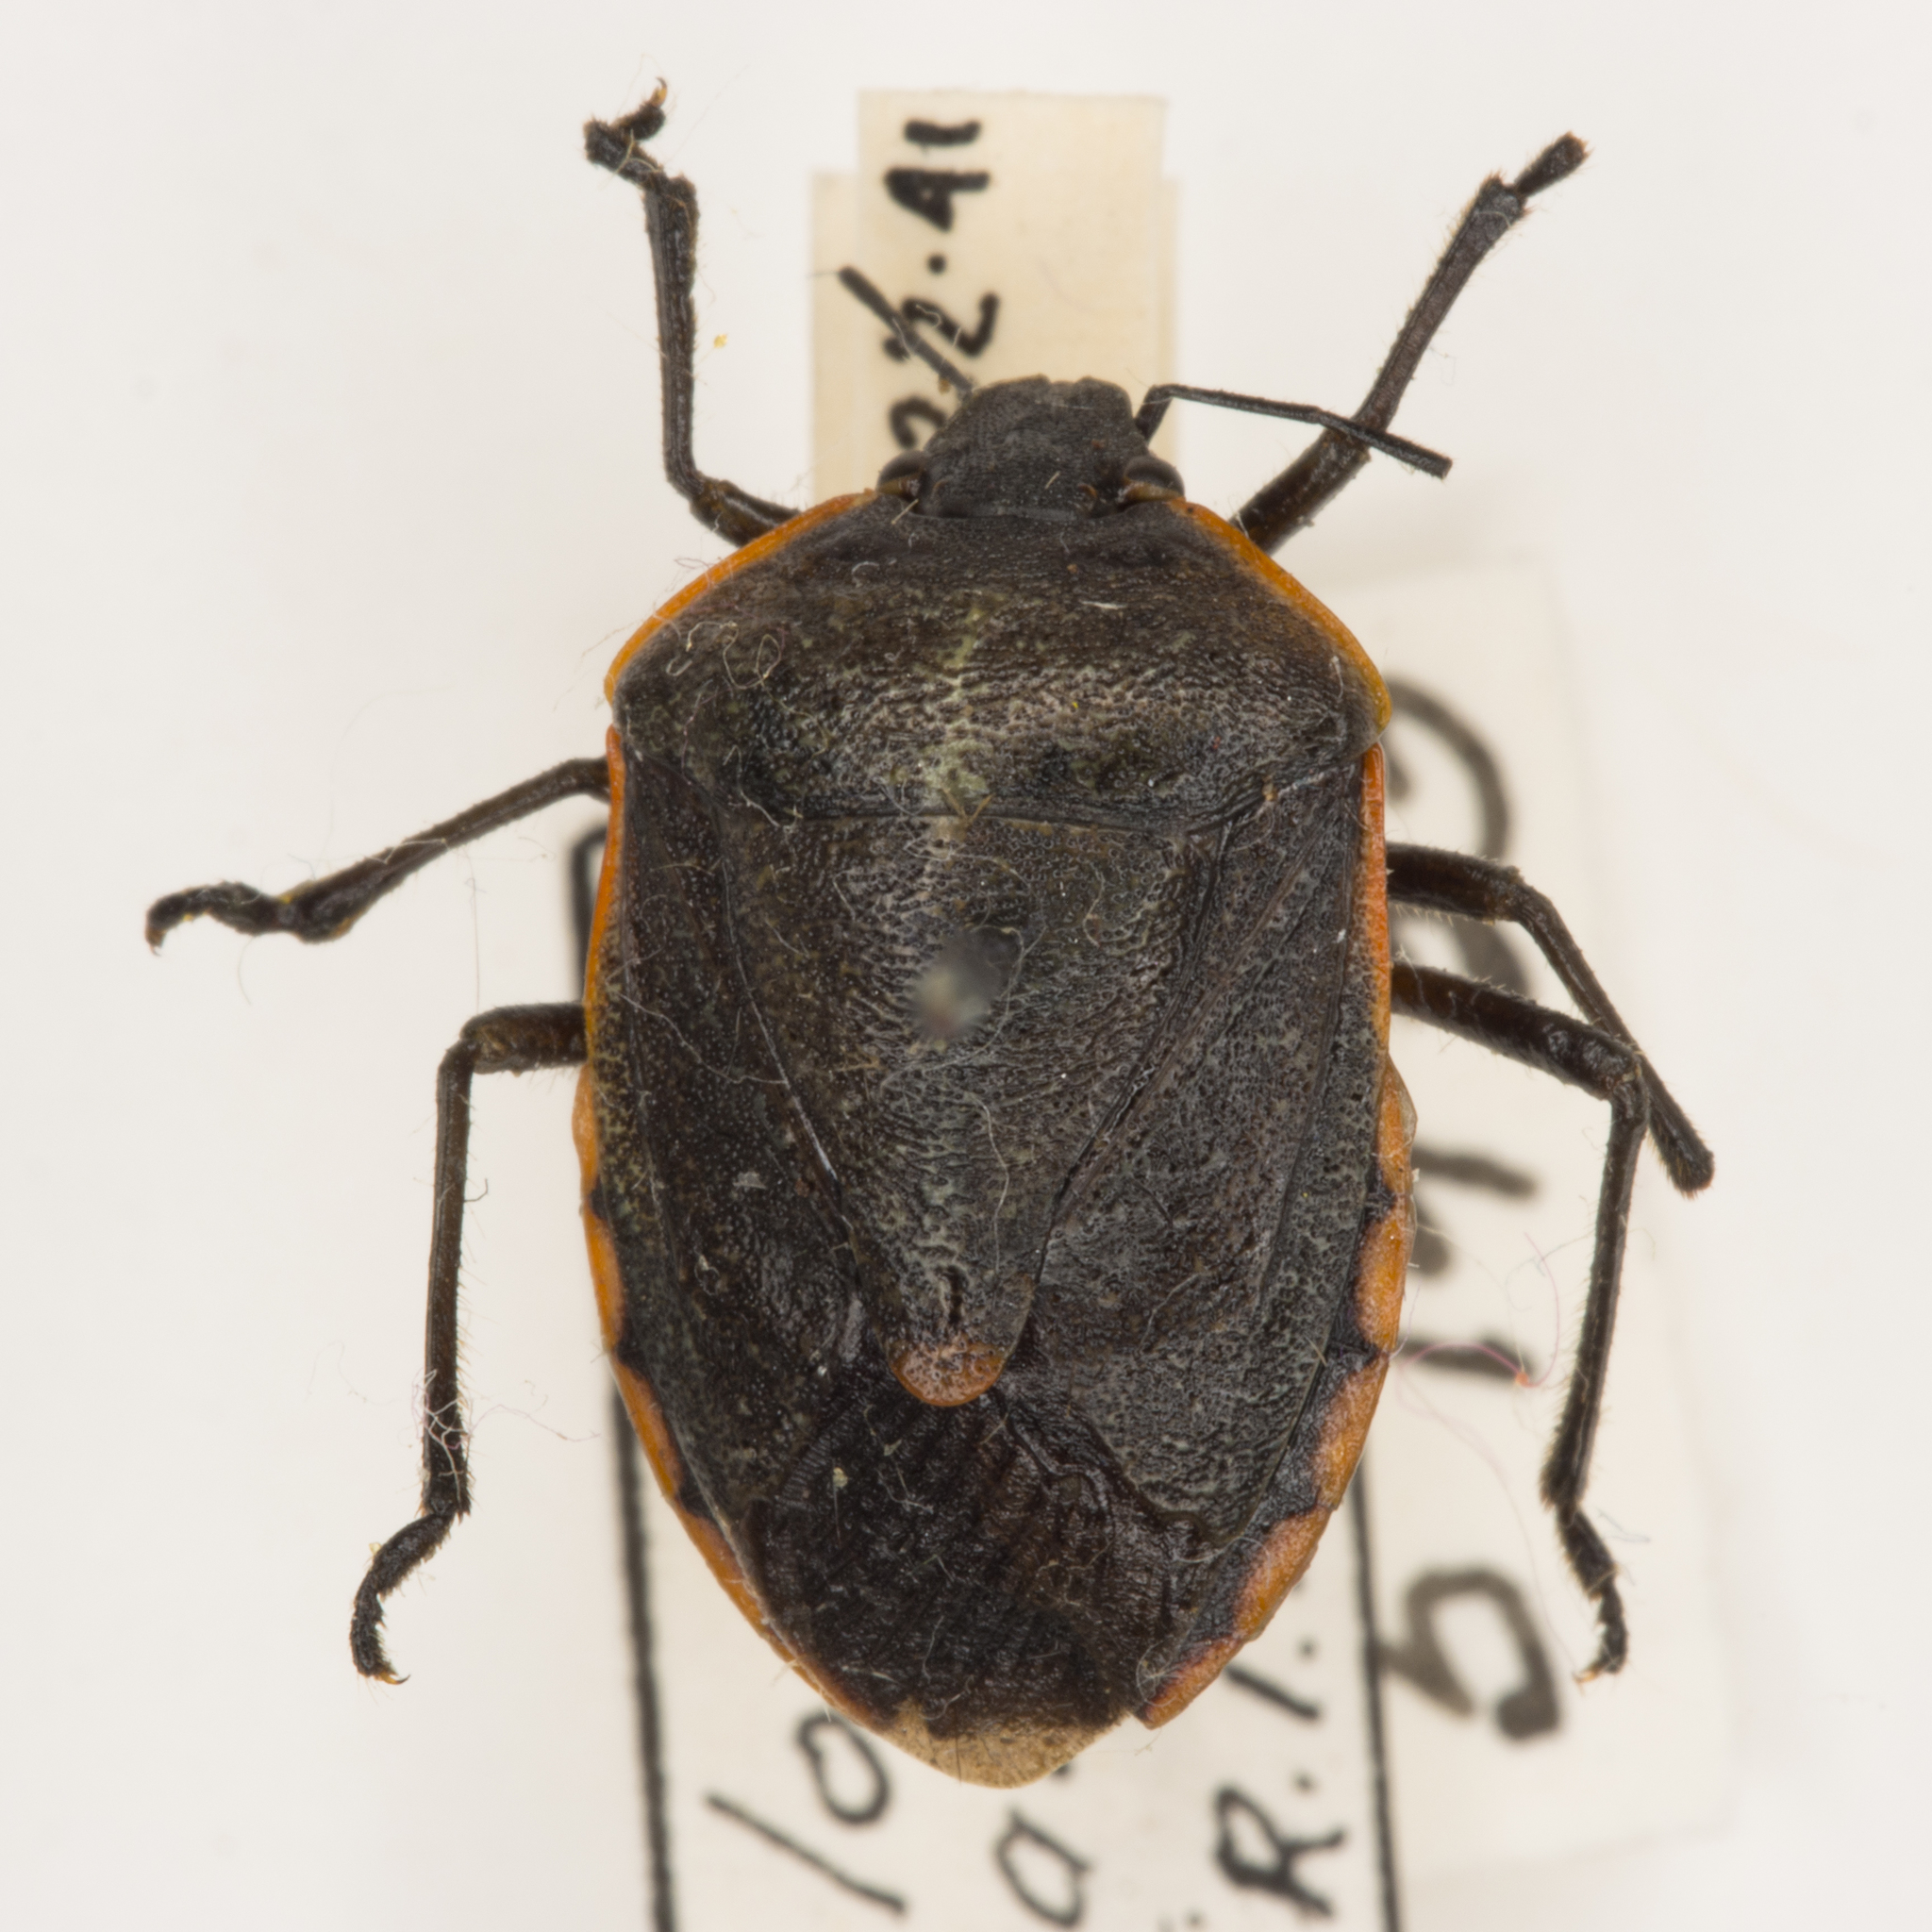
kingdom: Animalia
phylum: Arthropoda
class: Insecta
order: Hemiptera
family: Pentatomidae
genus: Chlorochroa
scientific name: Chlorochroa ligata
